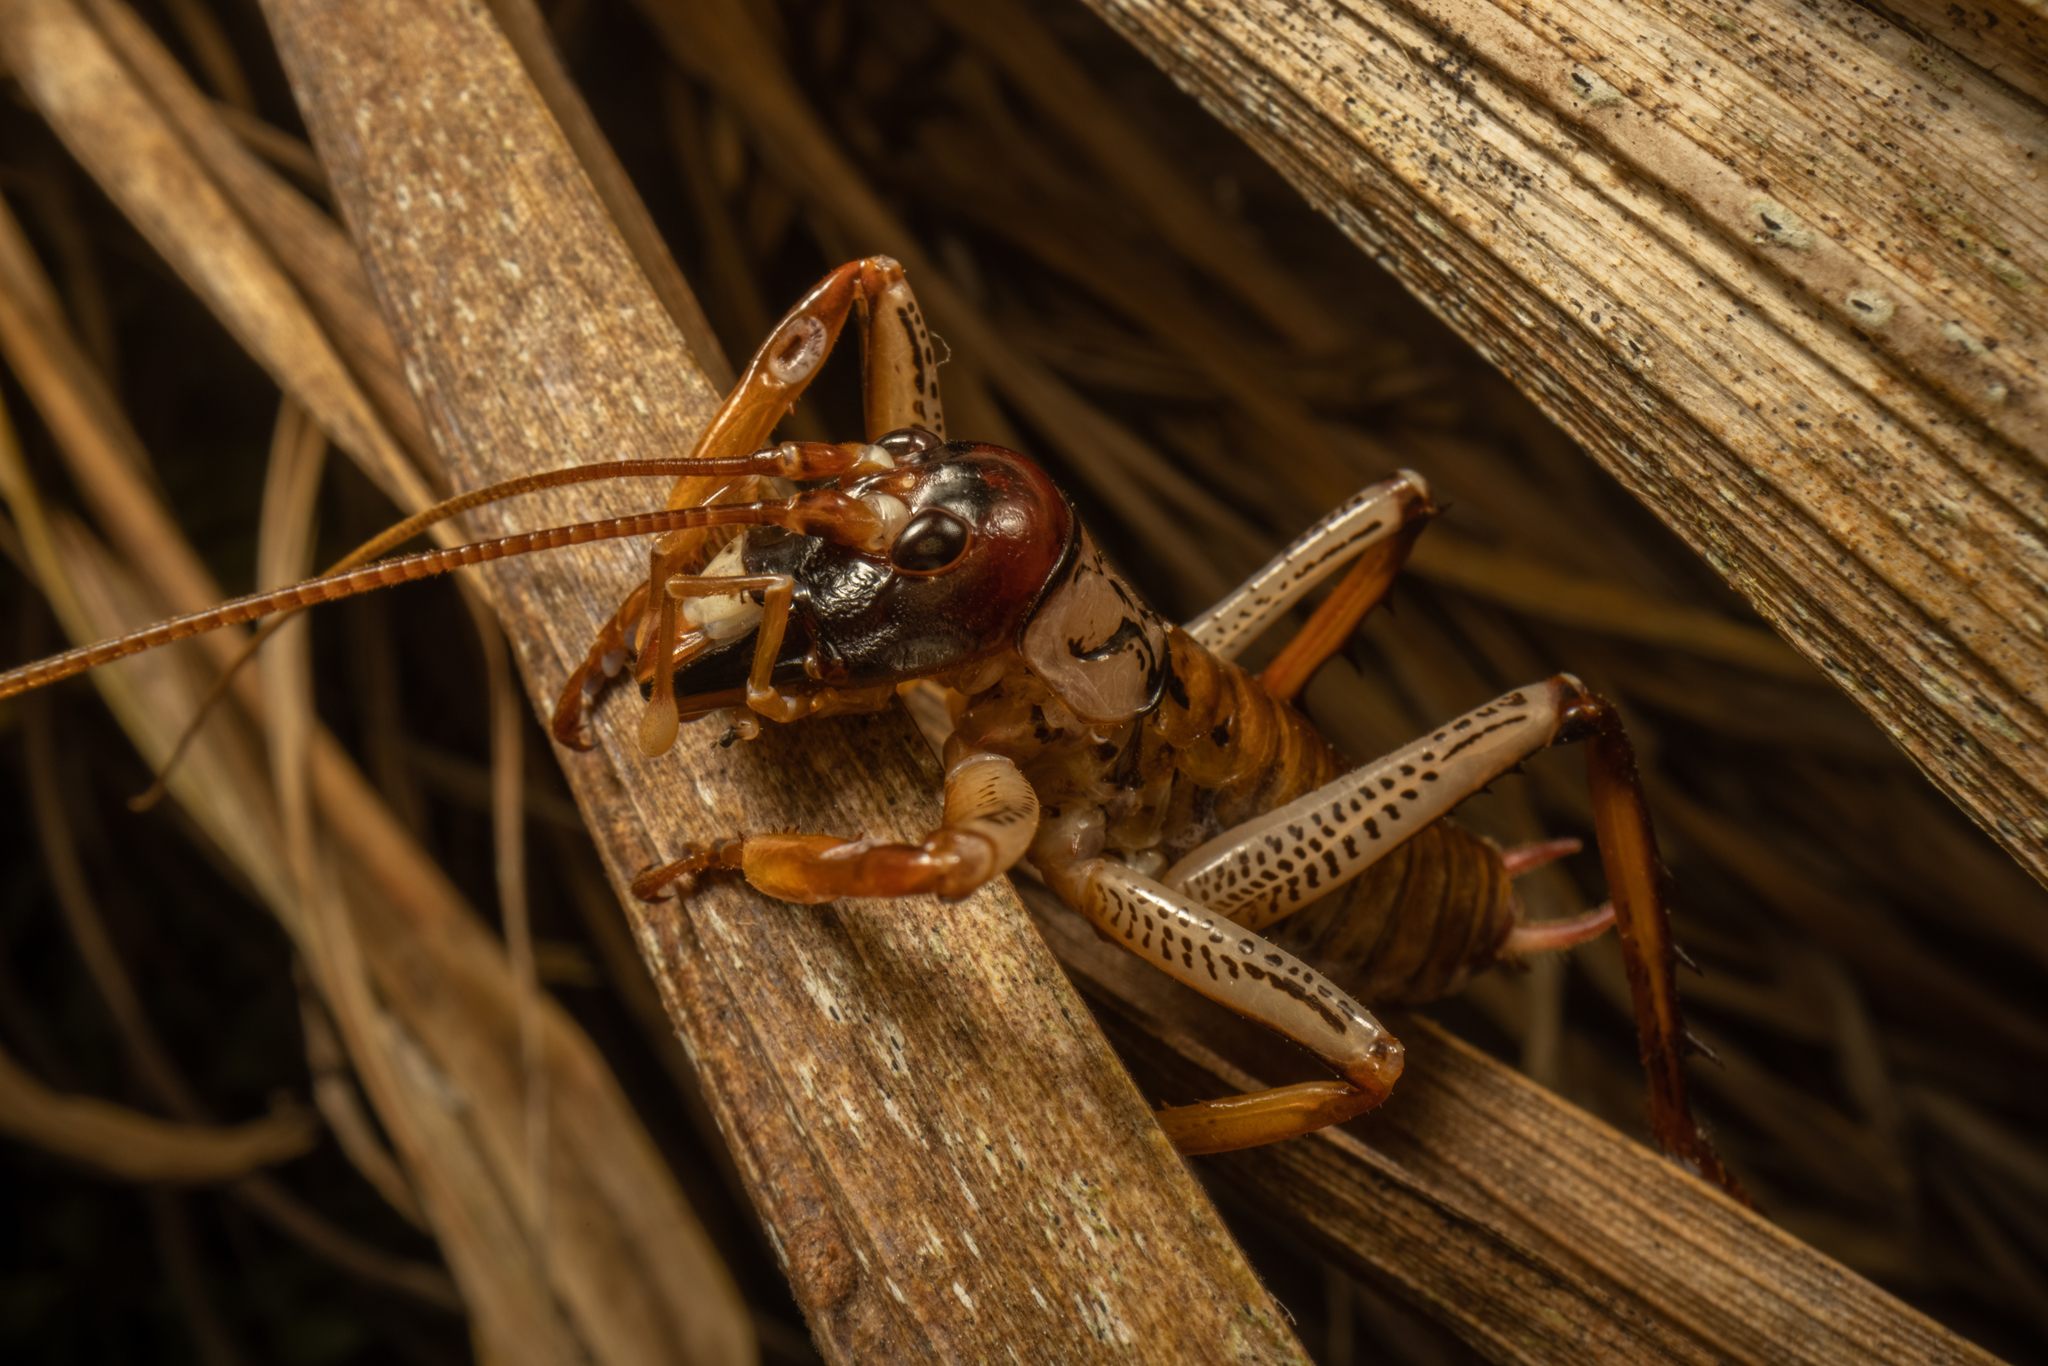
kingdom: Animalia
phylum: Arthropoda
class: Insecta
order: Orthoptera
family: Anostostomatidae
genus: Hemideina
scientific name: Hemideina thoracica
